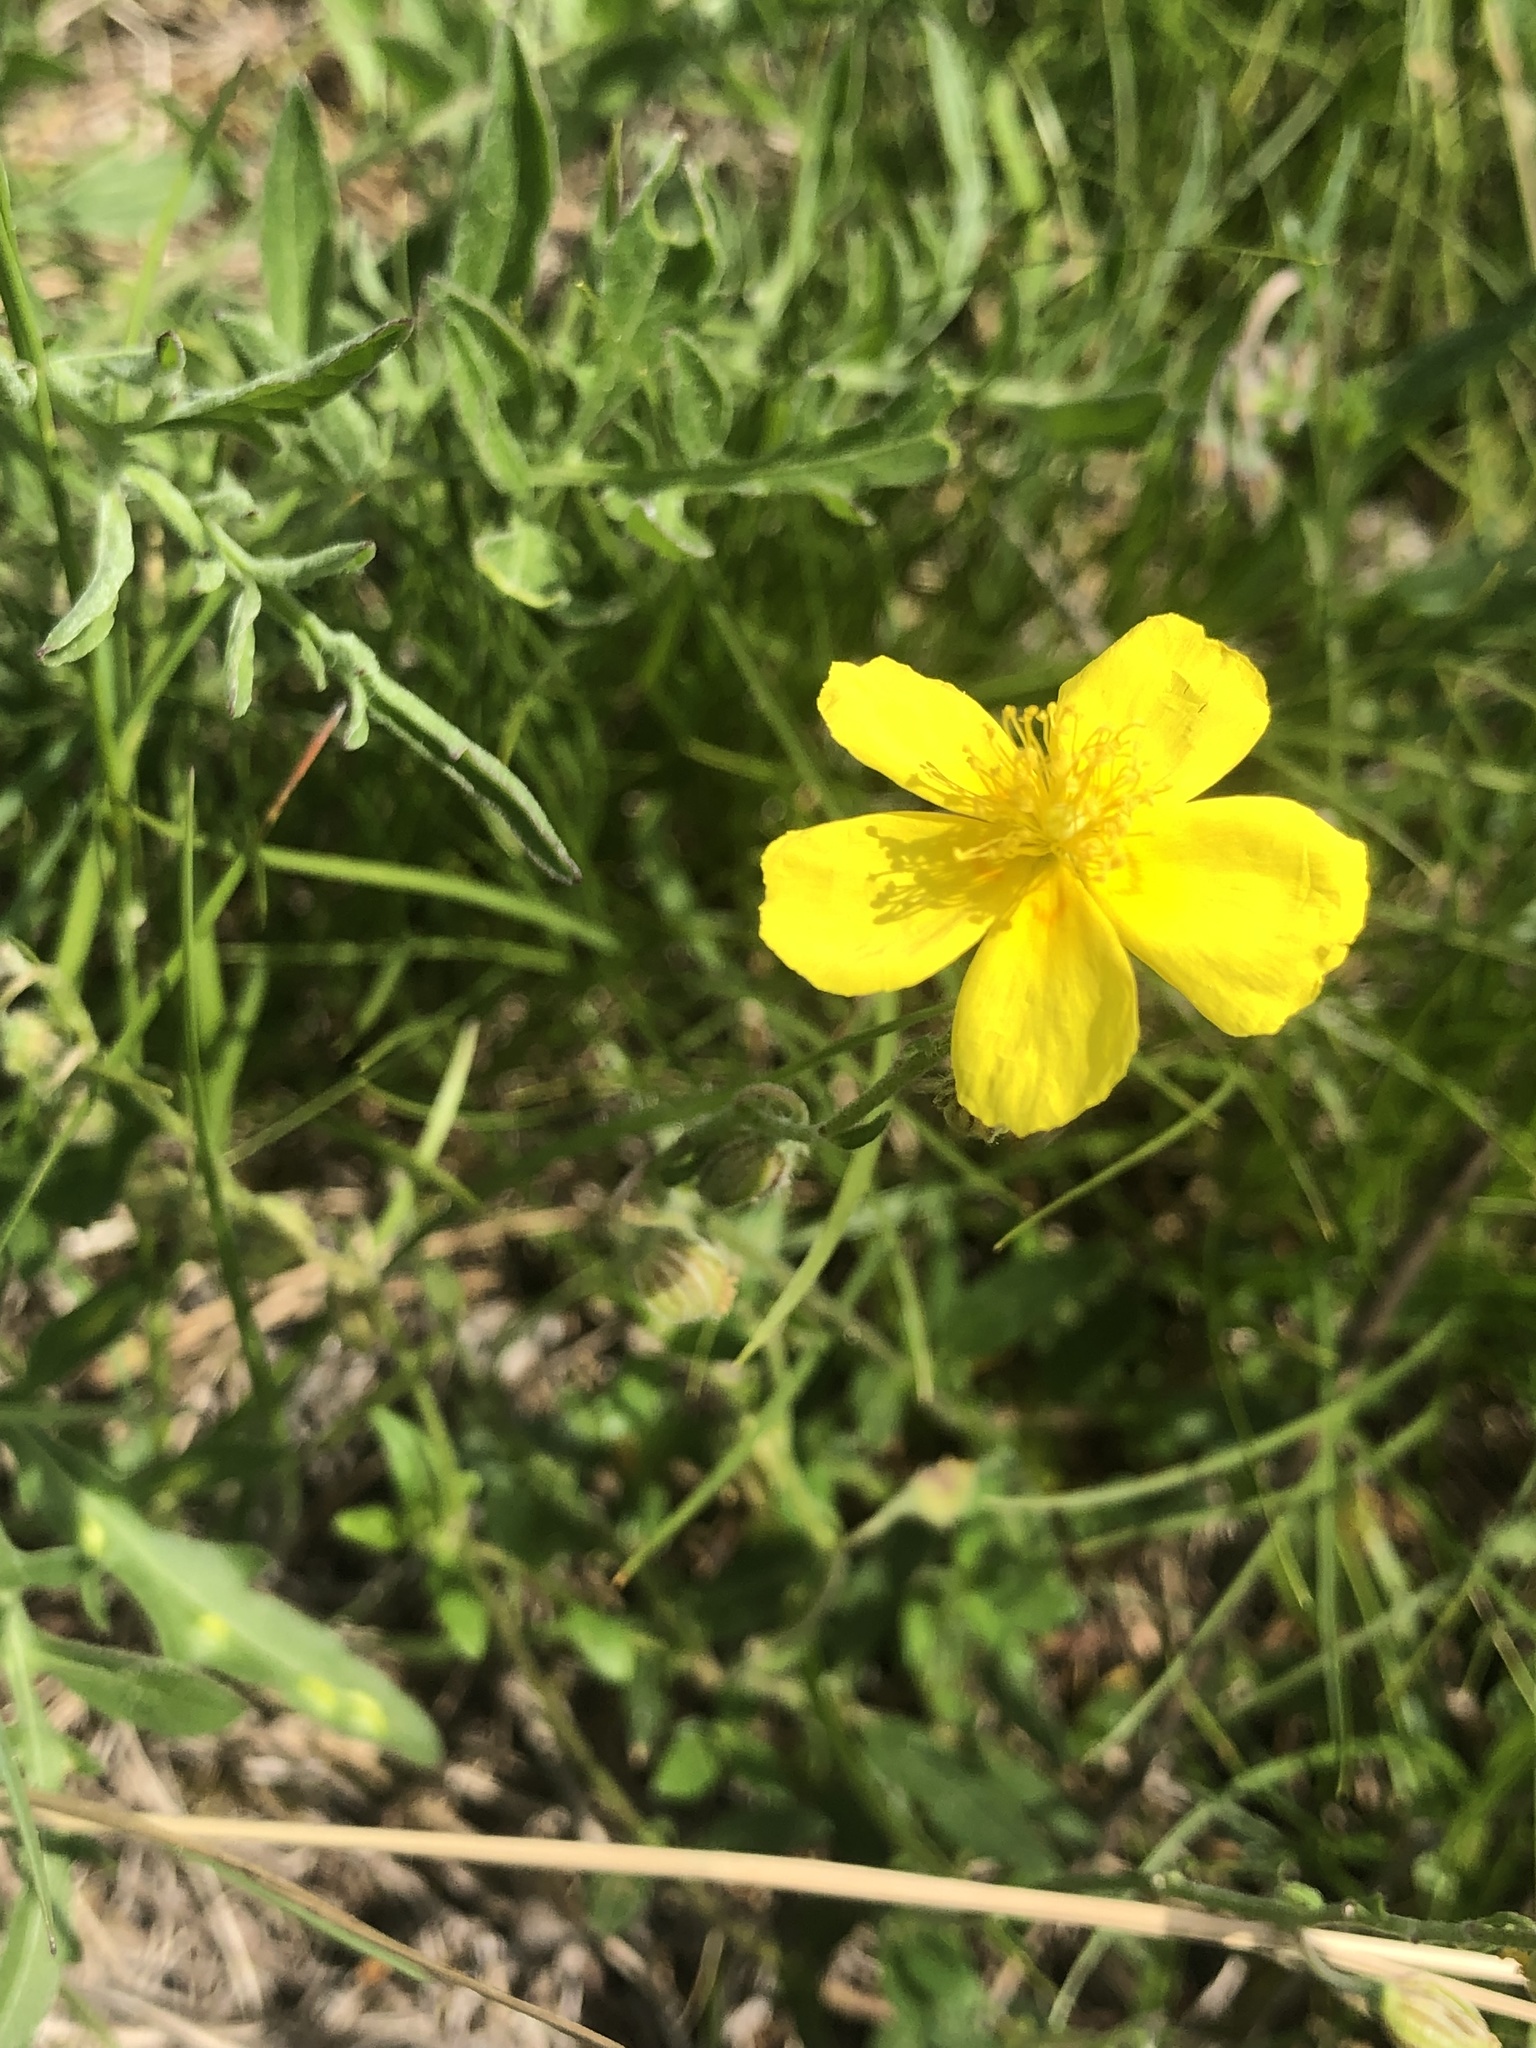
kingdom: Plantae
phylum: Tracheophyta
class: Magnoliopsida
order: Malvales
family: Cistaceae
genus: Helianthemum
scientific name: Helianthemum nummularium
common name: Common rock-rose
